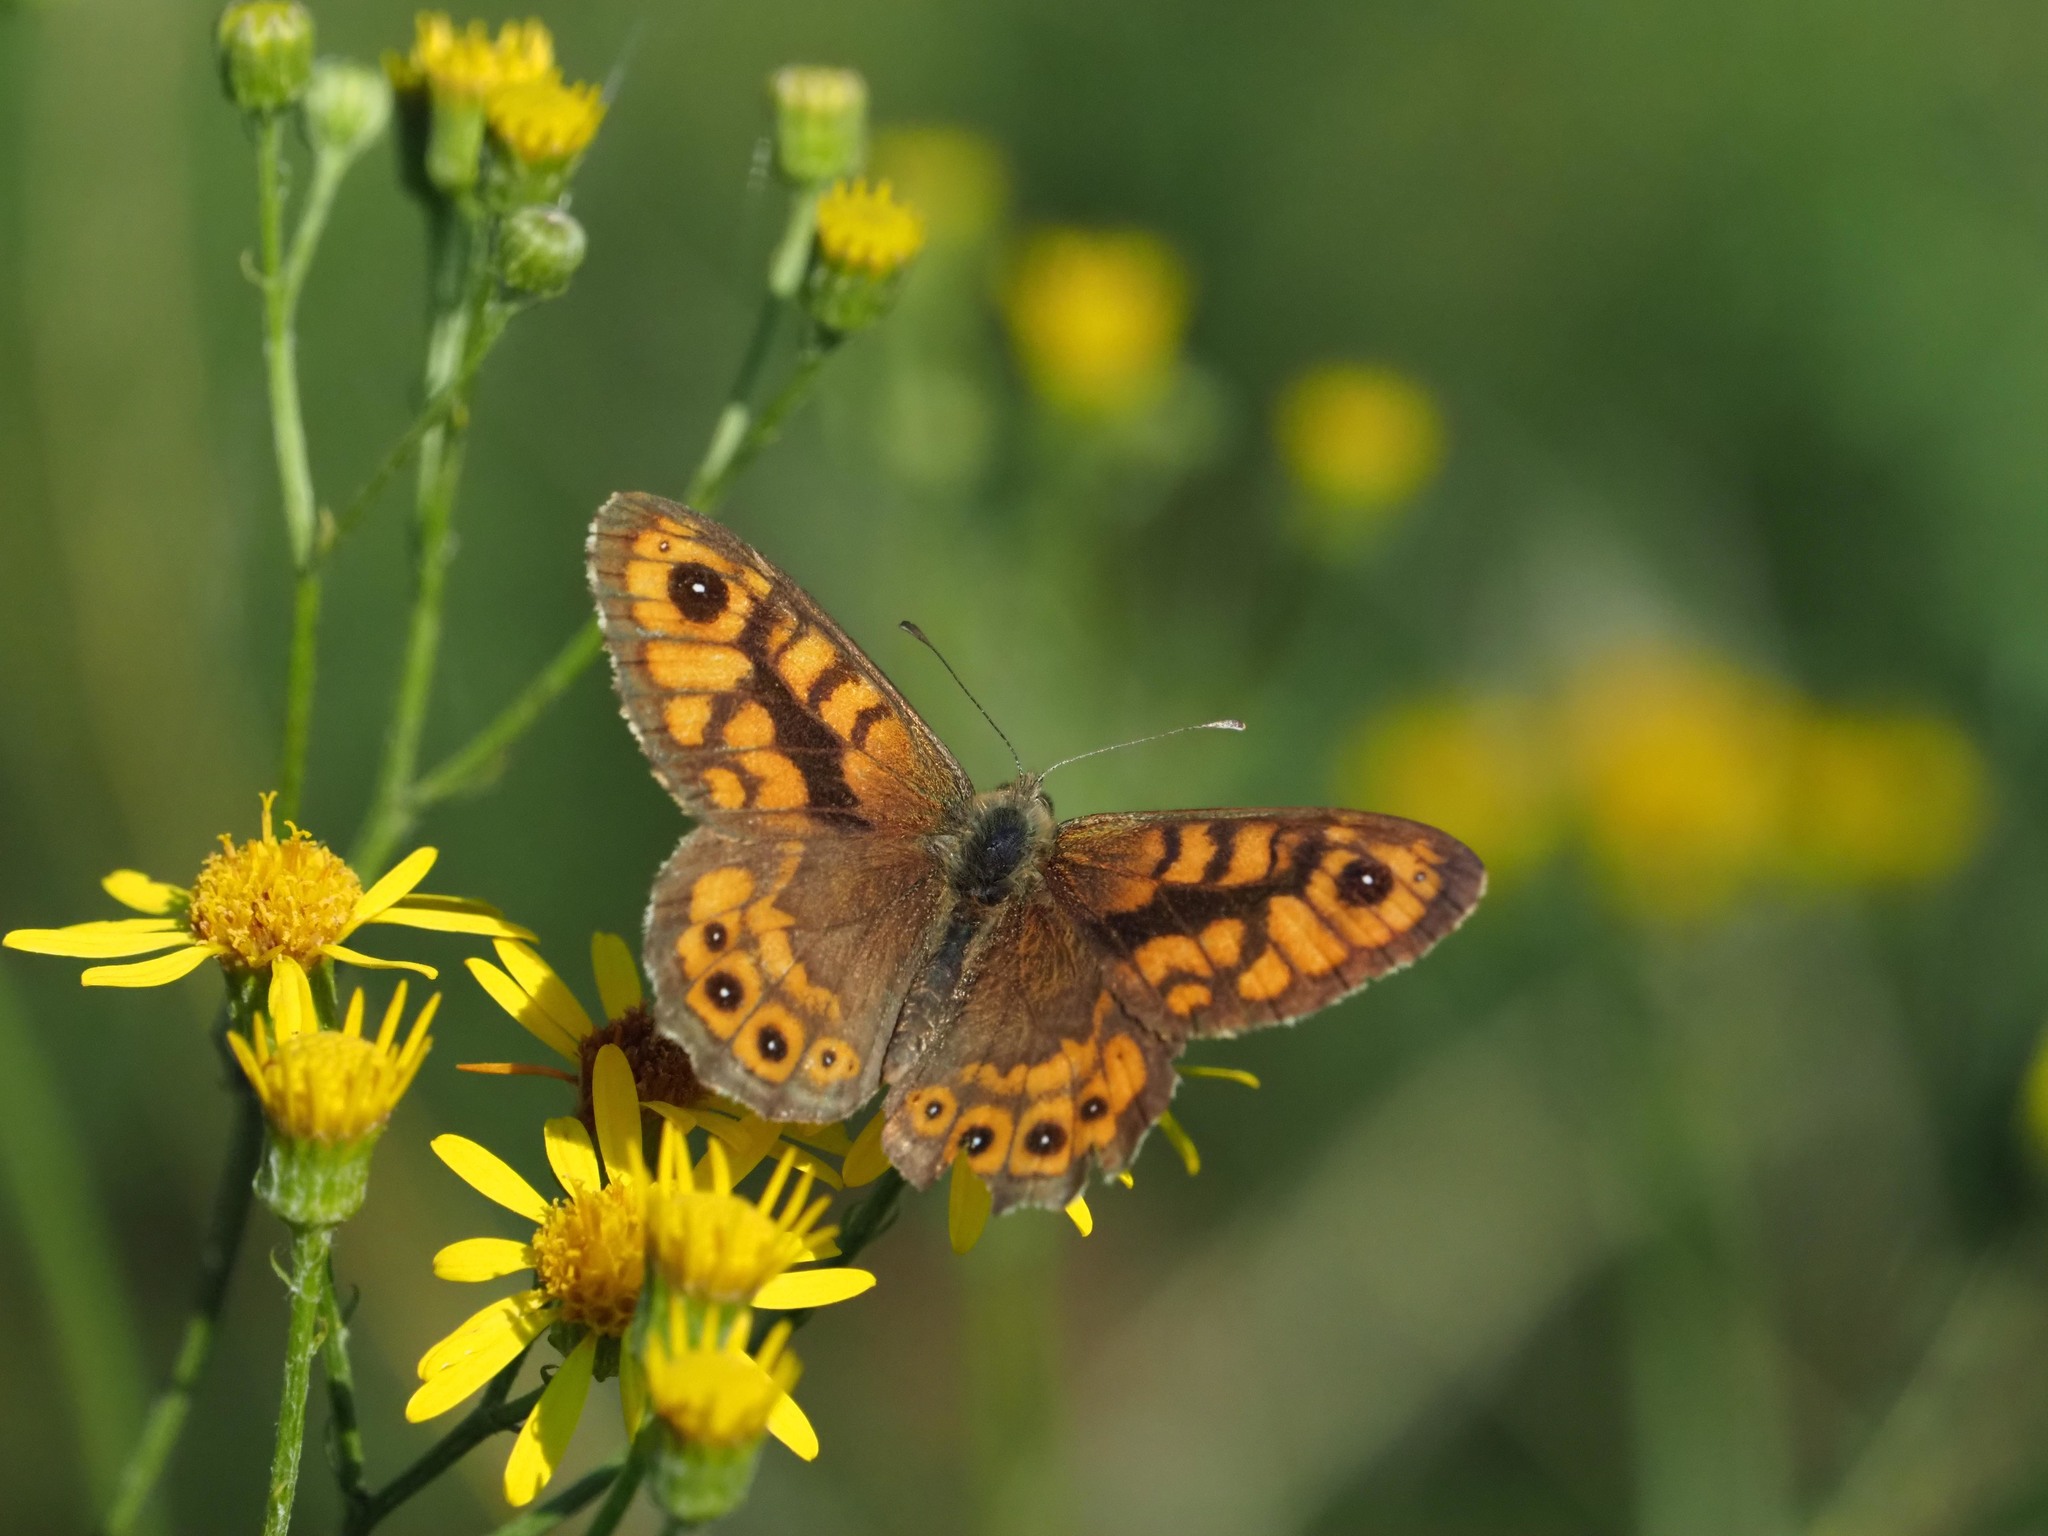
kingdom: Animalia
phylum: Arthropoda
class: Insecta
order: Lepidoptera
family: Nymphalidae
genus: Pararge
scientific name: Pararge Lasiommata megera
